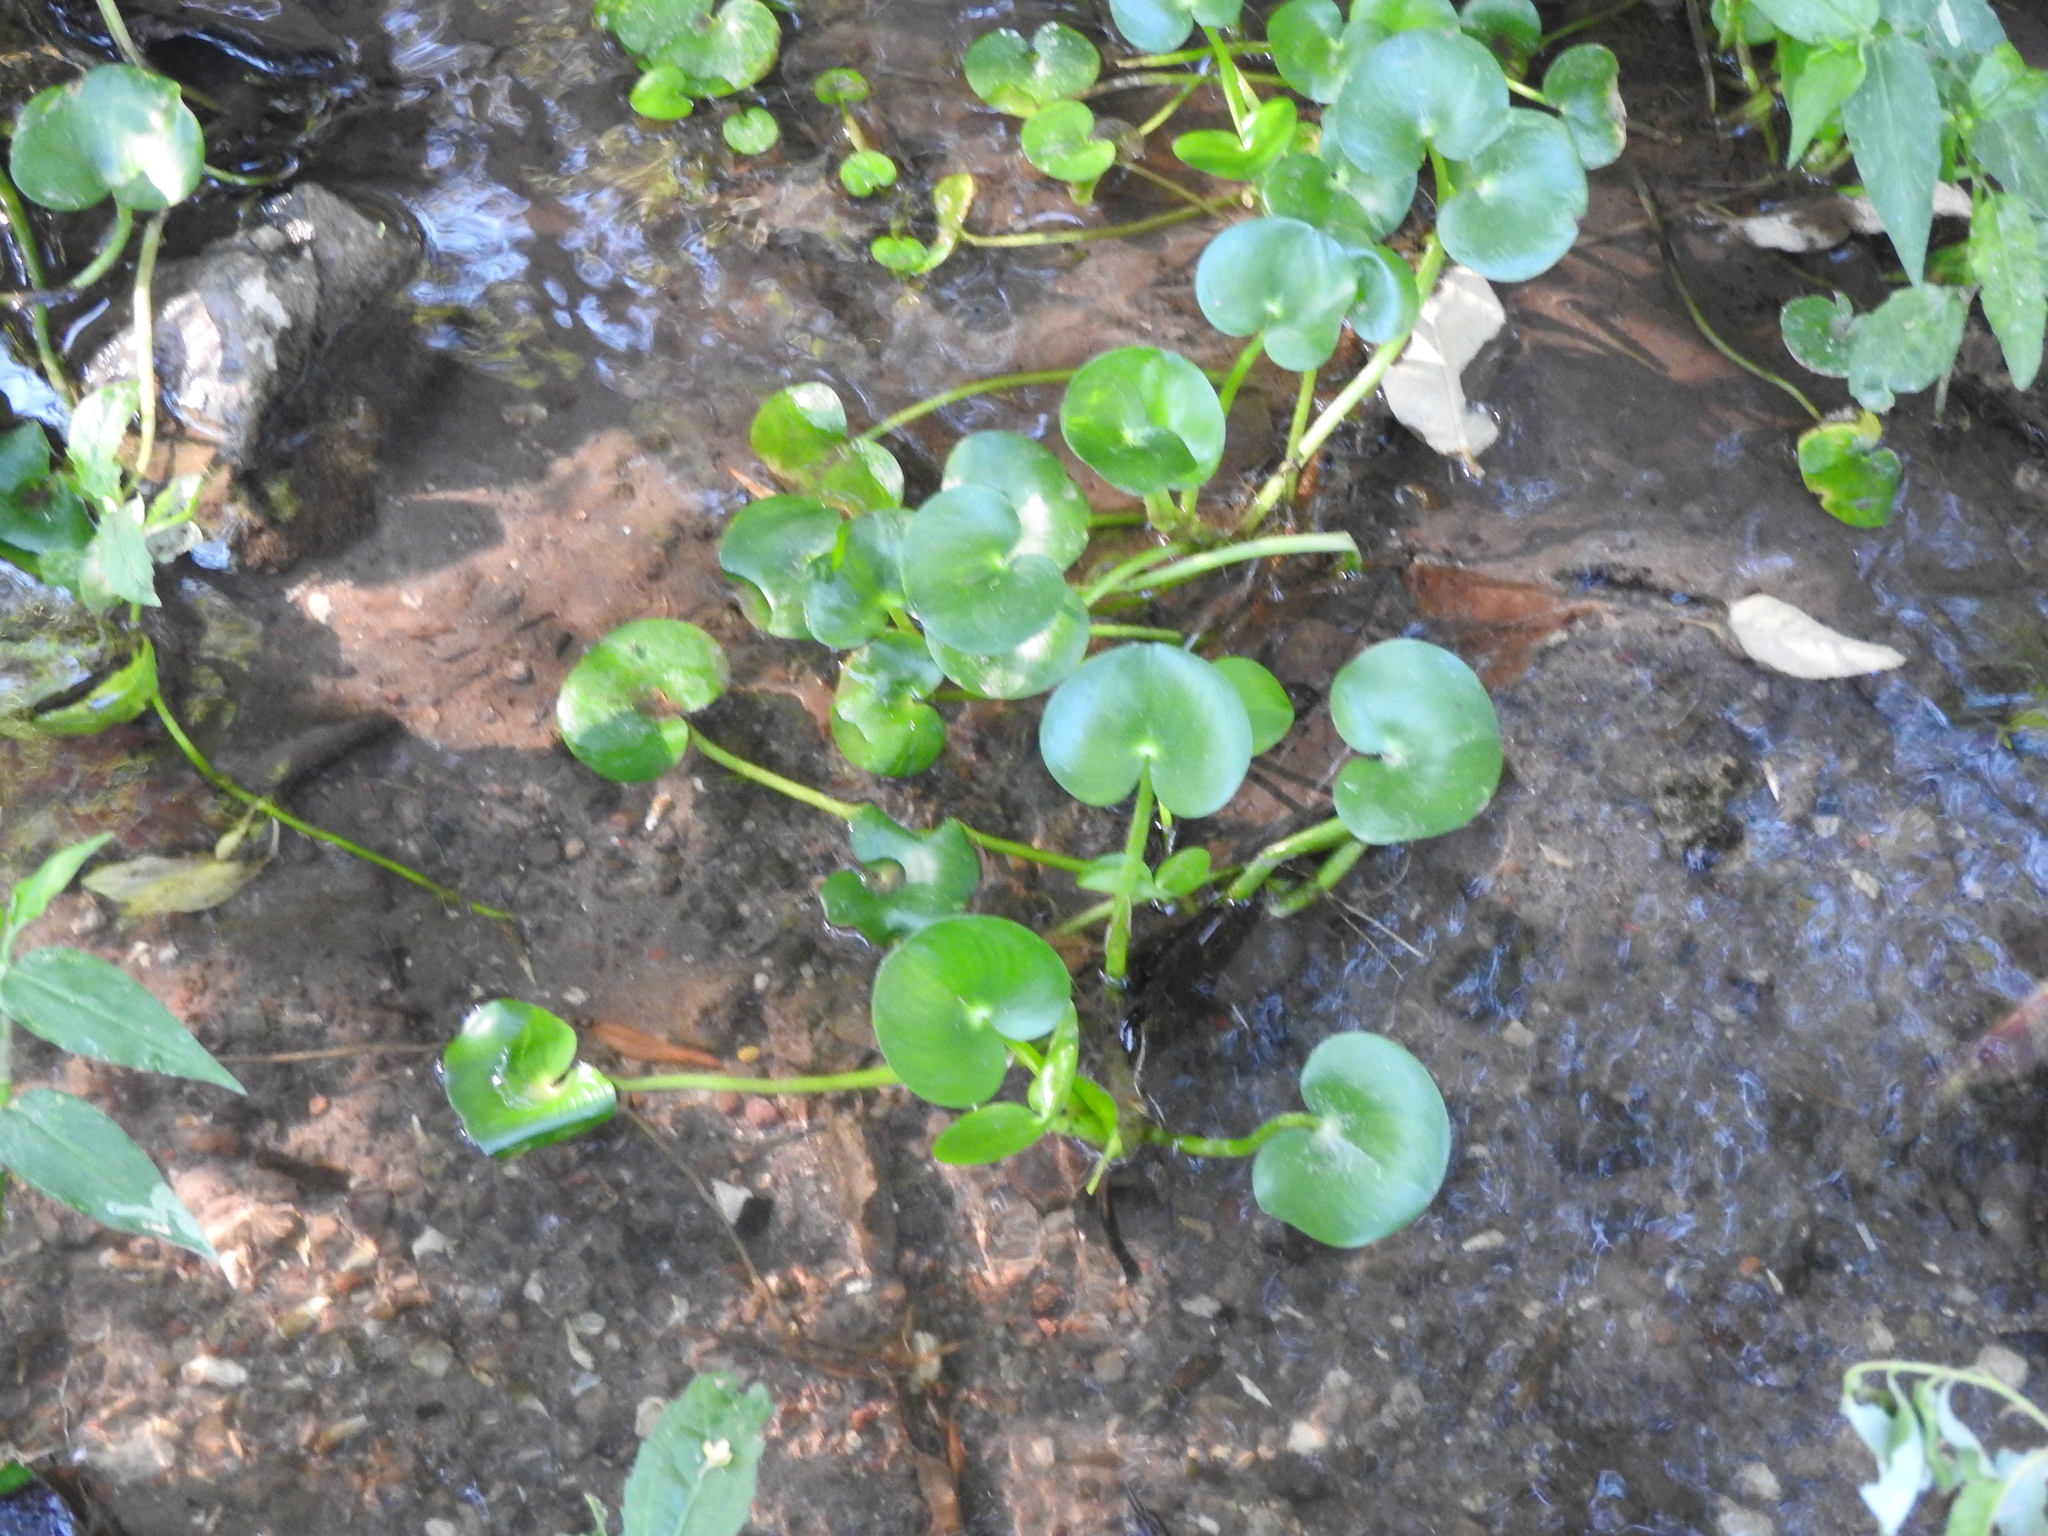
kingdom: Plantae
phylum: Tracheophyta
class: Liliopsida
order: Commelinales
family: Pontederiaceae
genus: Heteranthera
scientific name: Heteranthera reniformis
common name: Kidneyleaf mudplantain
